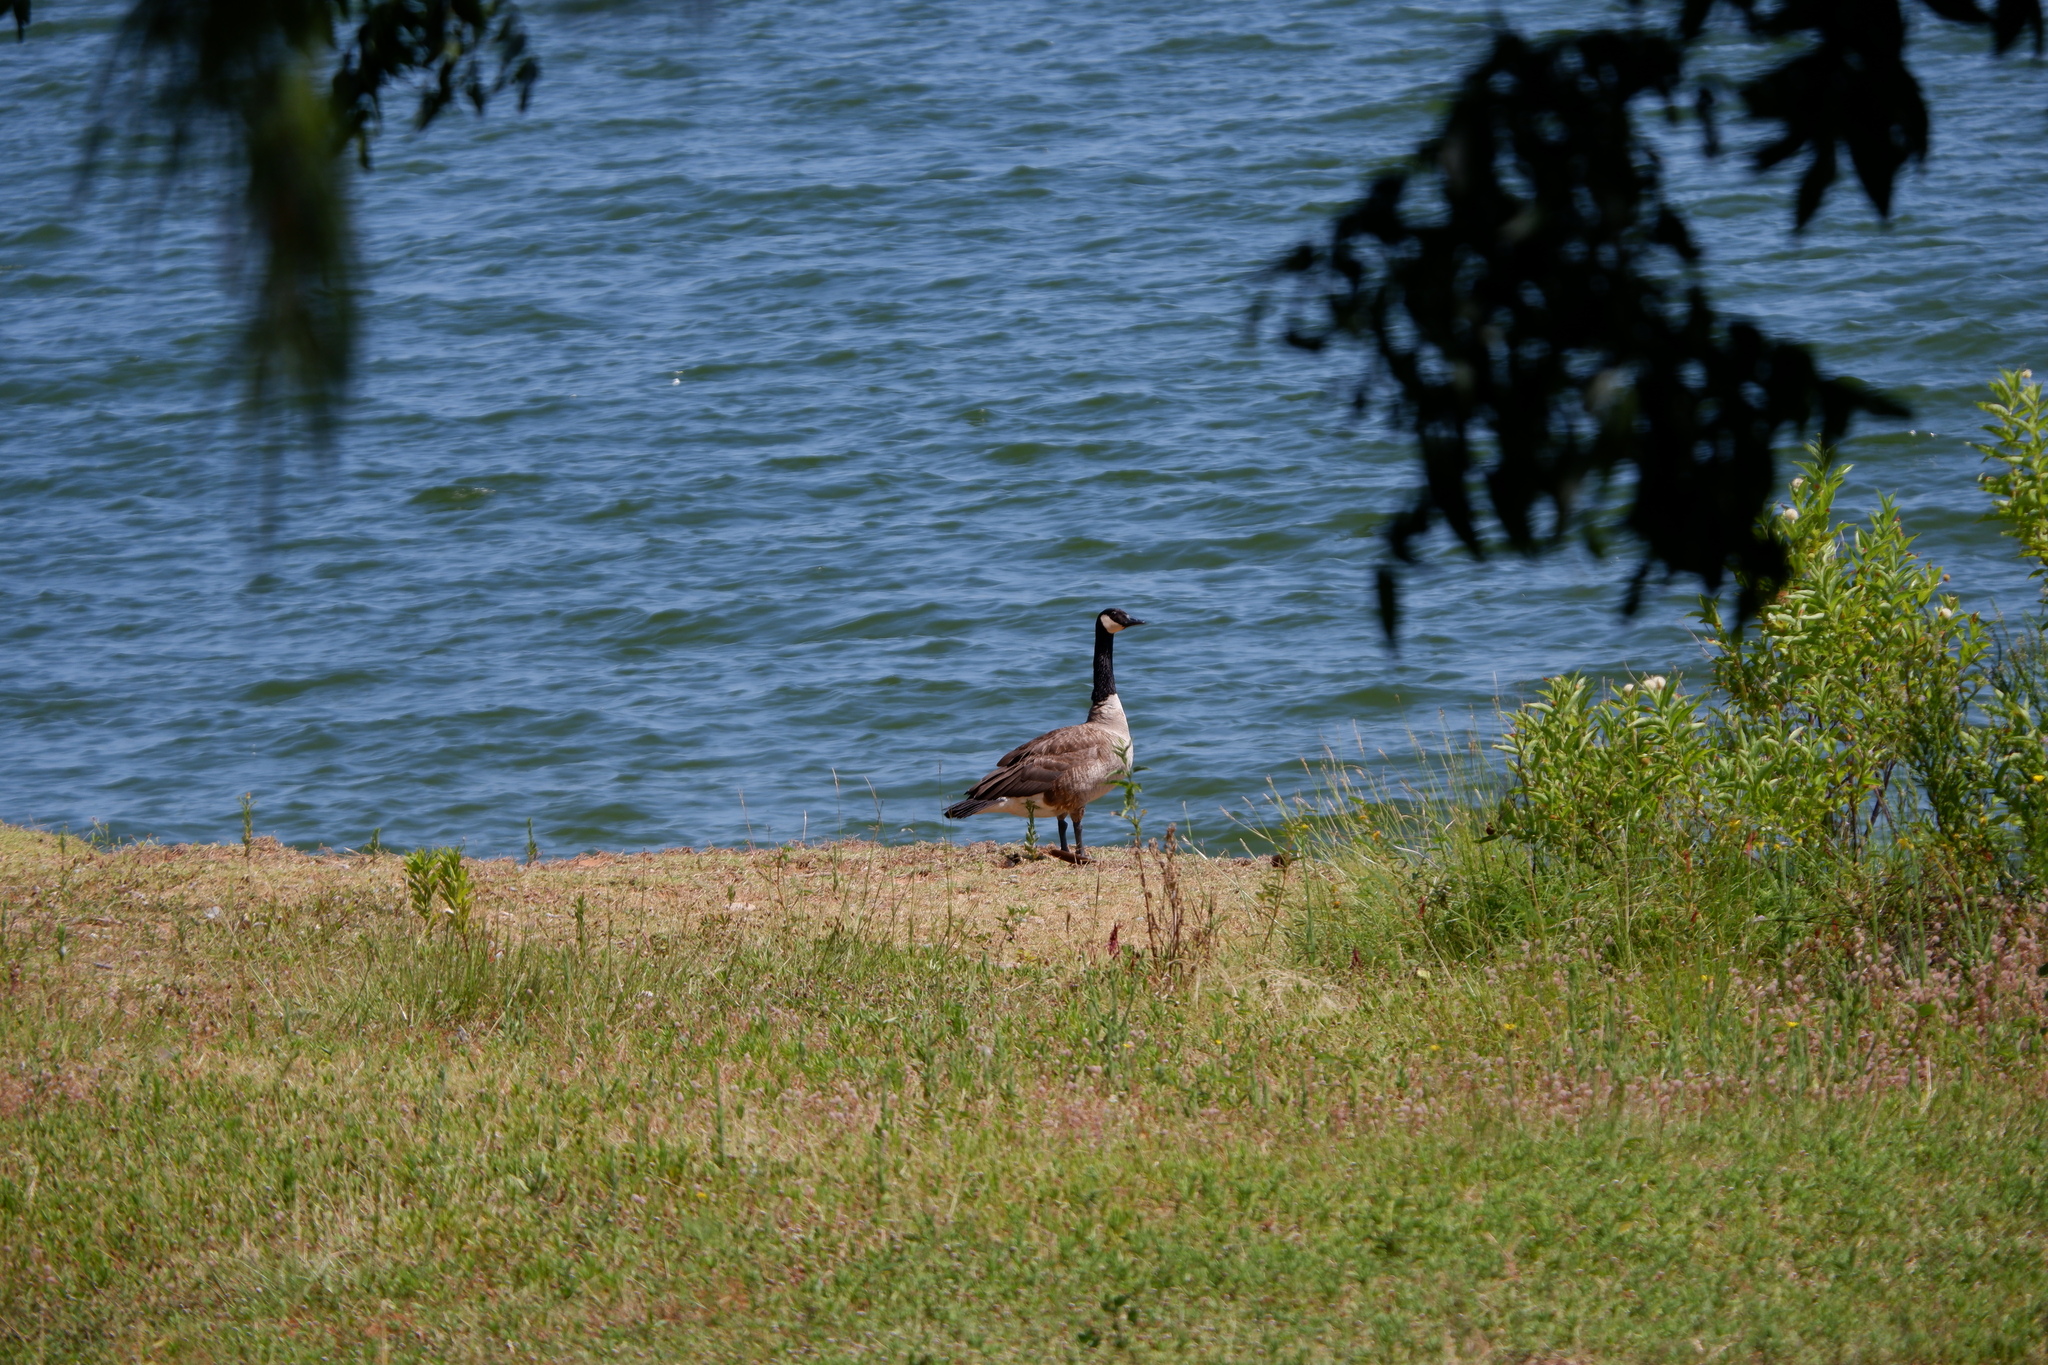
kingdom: Animalia
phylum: Chordata
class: Aves
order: Anseriformes
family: Anatidae
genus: Branta
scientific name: Branta canadensis
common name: Canada goose
